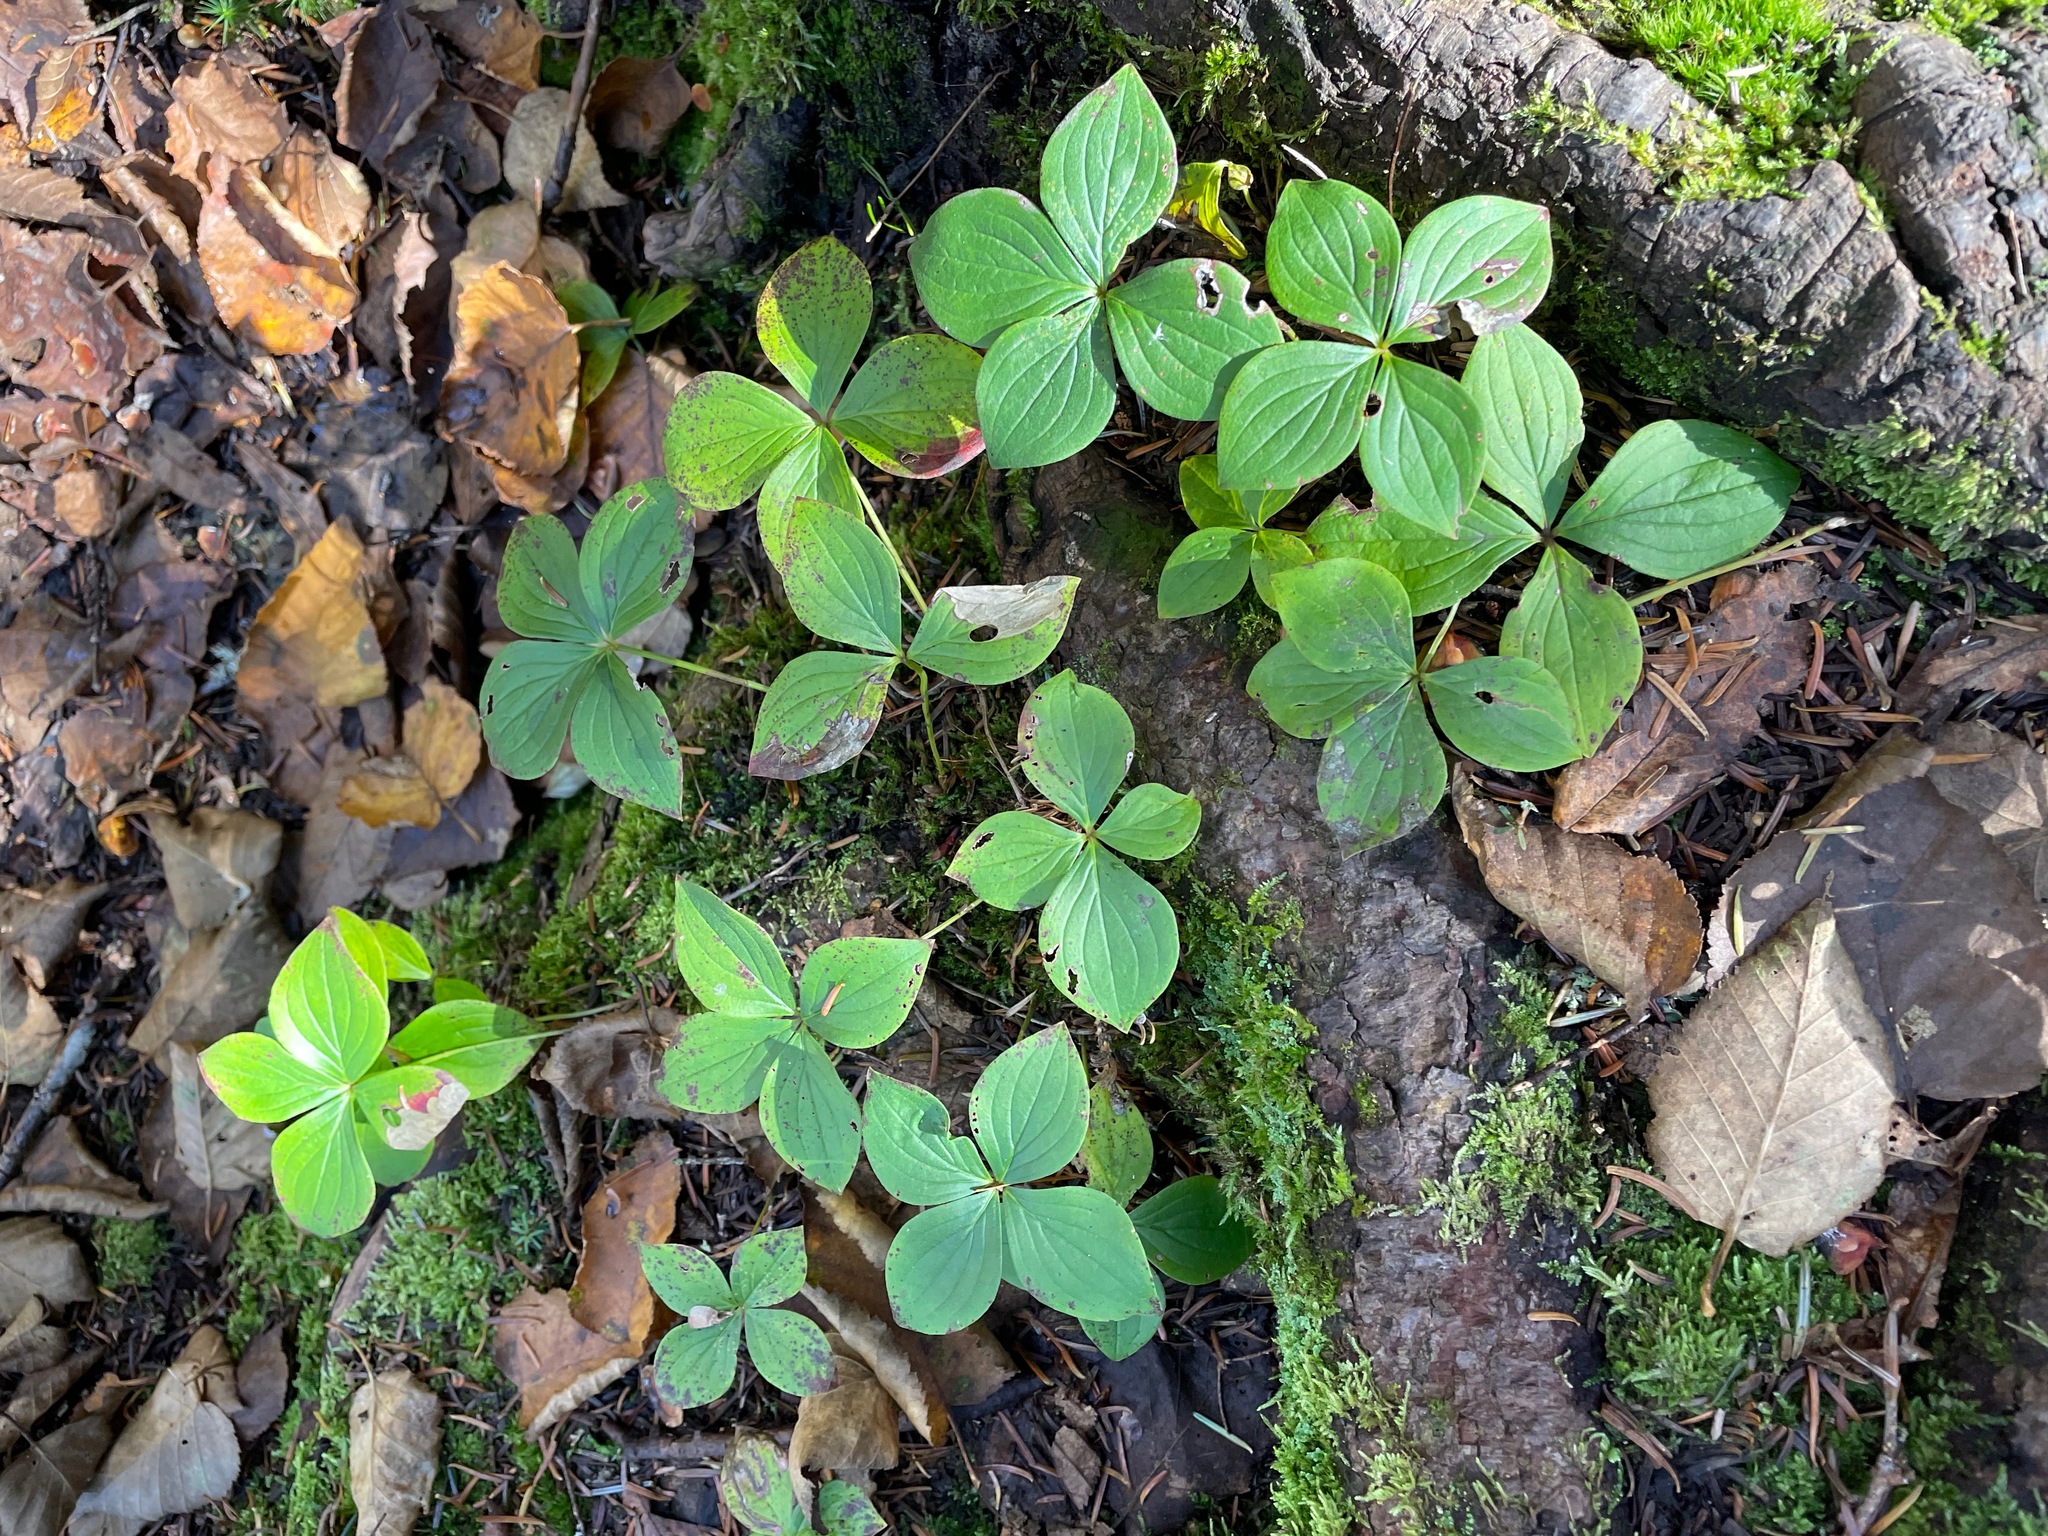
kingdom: Plantae
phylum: Tracheophyta
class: Magnoliopsida
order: Cornales
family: Cornaceae
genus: Cornus
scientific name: Cornus canadensis
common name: Creeping dogwood
